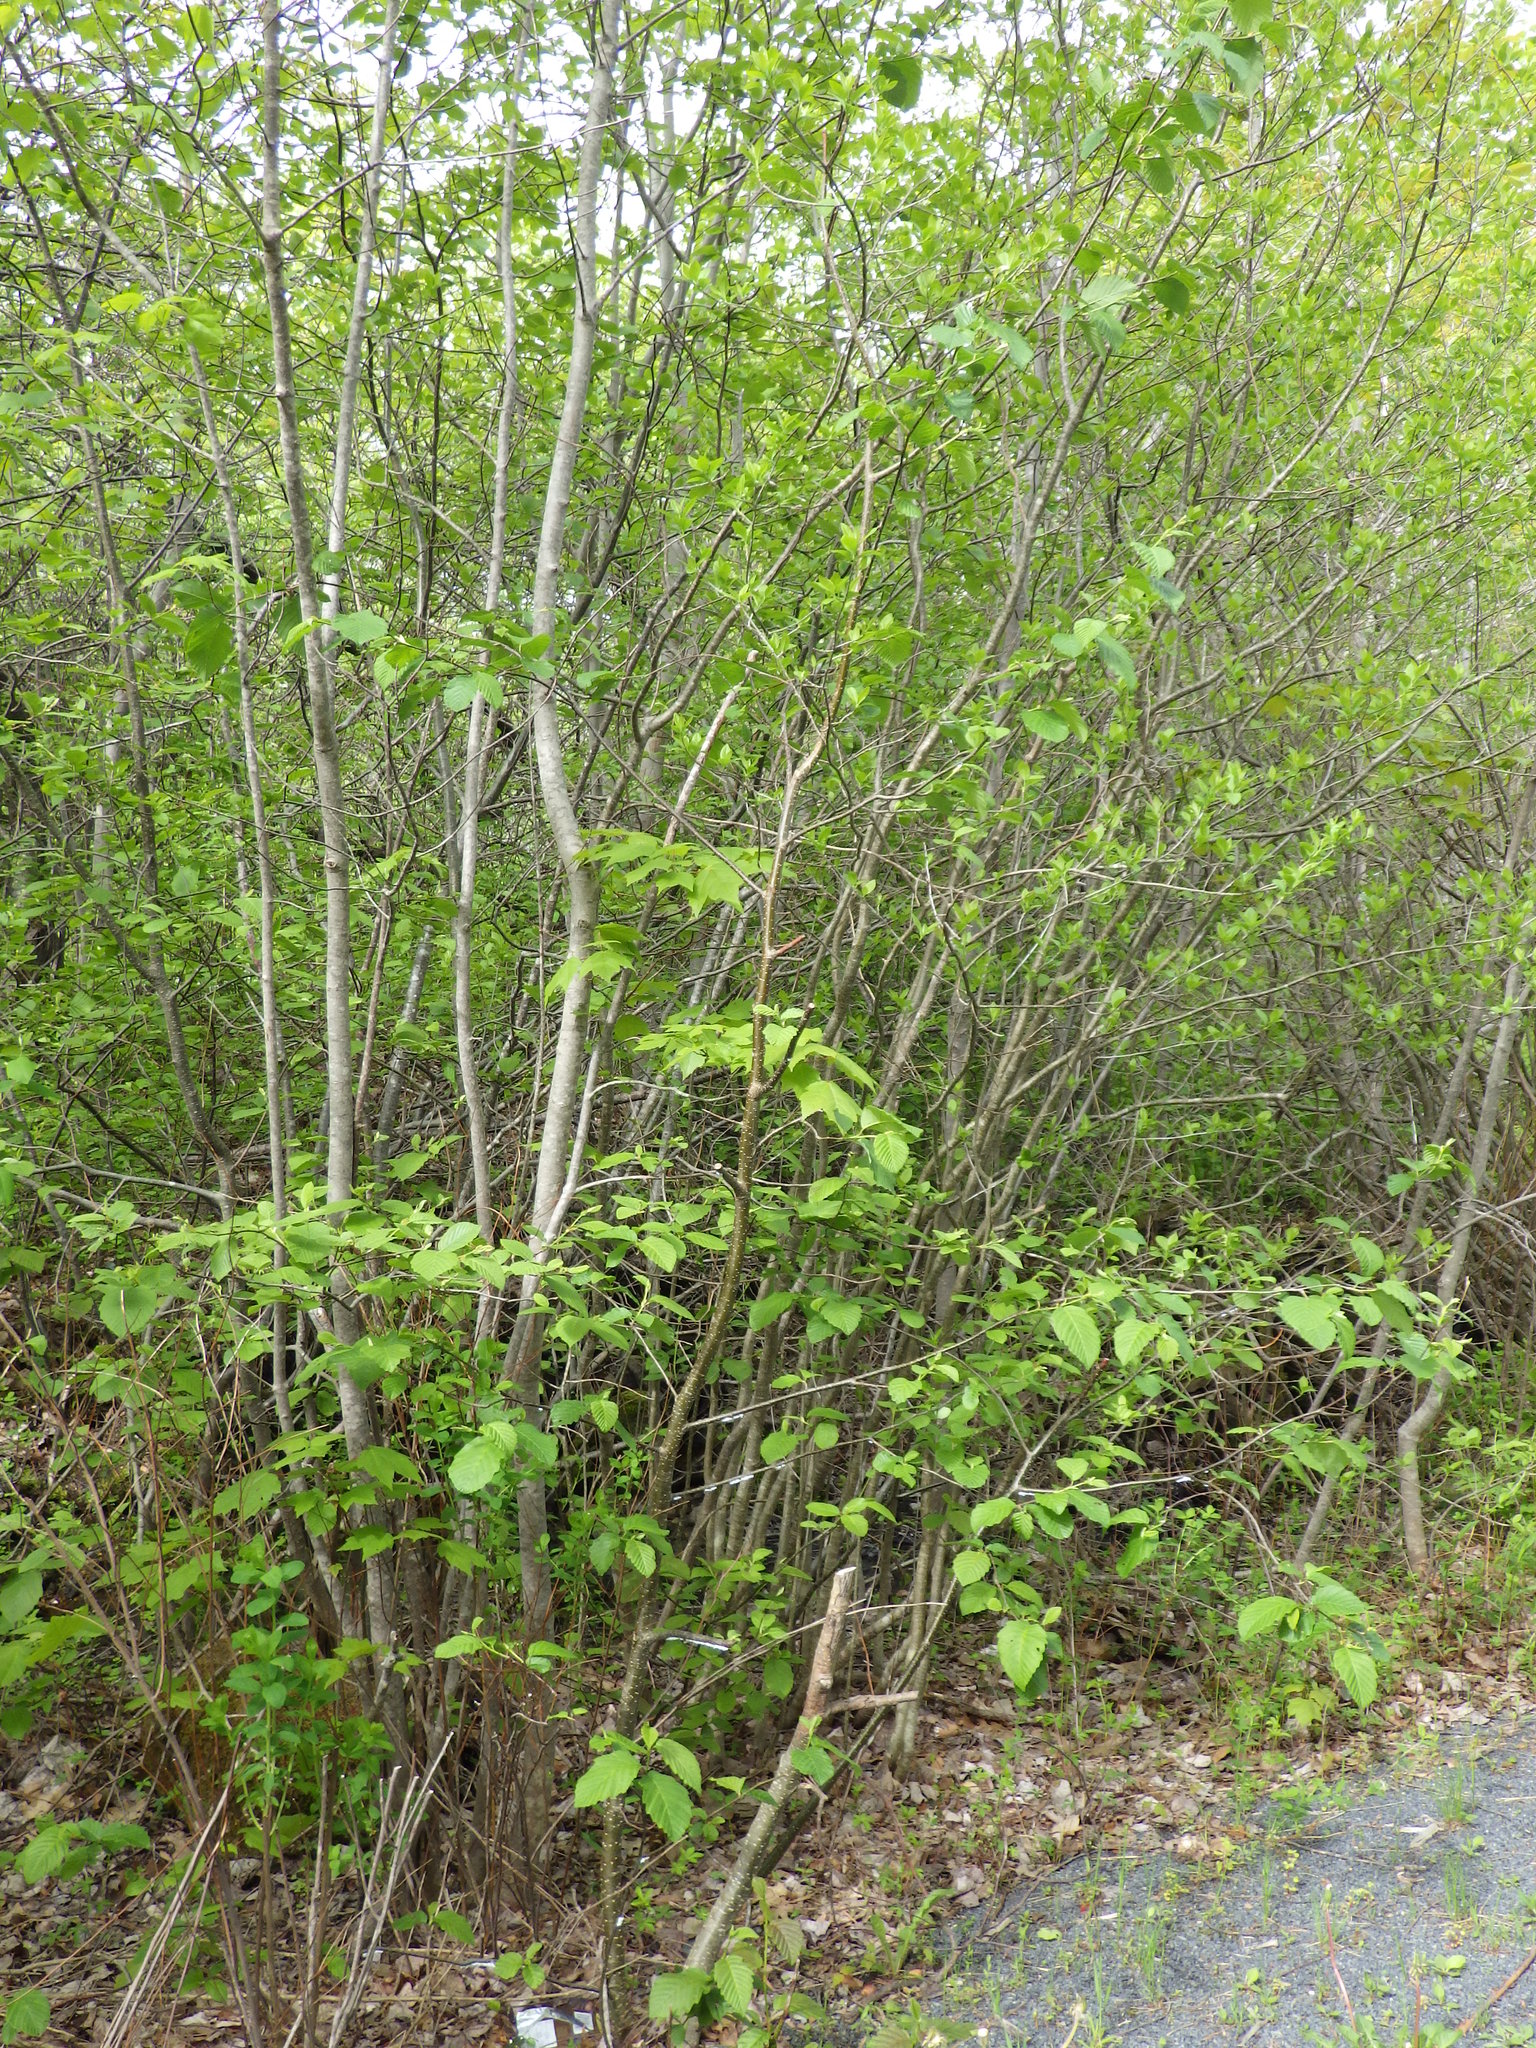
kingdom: Plantae
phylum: Tracheophyta
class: Magnoliopsida
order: Fagales
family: Betulaceae
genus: Alnus
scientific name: Alnus incana
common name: Grey alder
